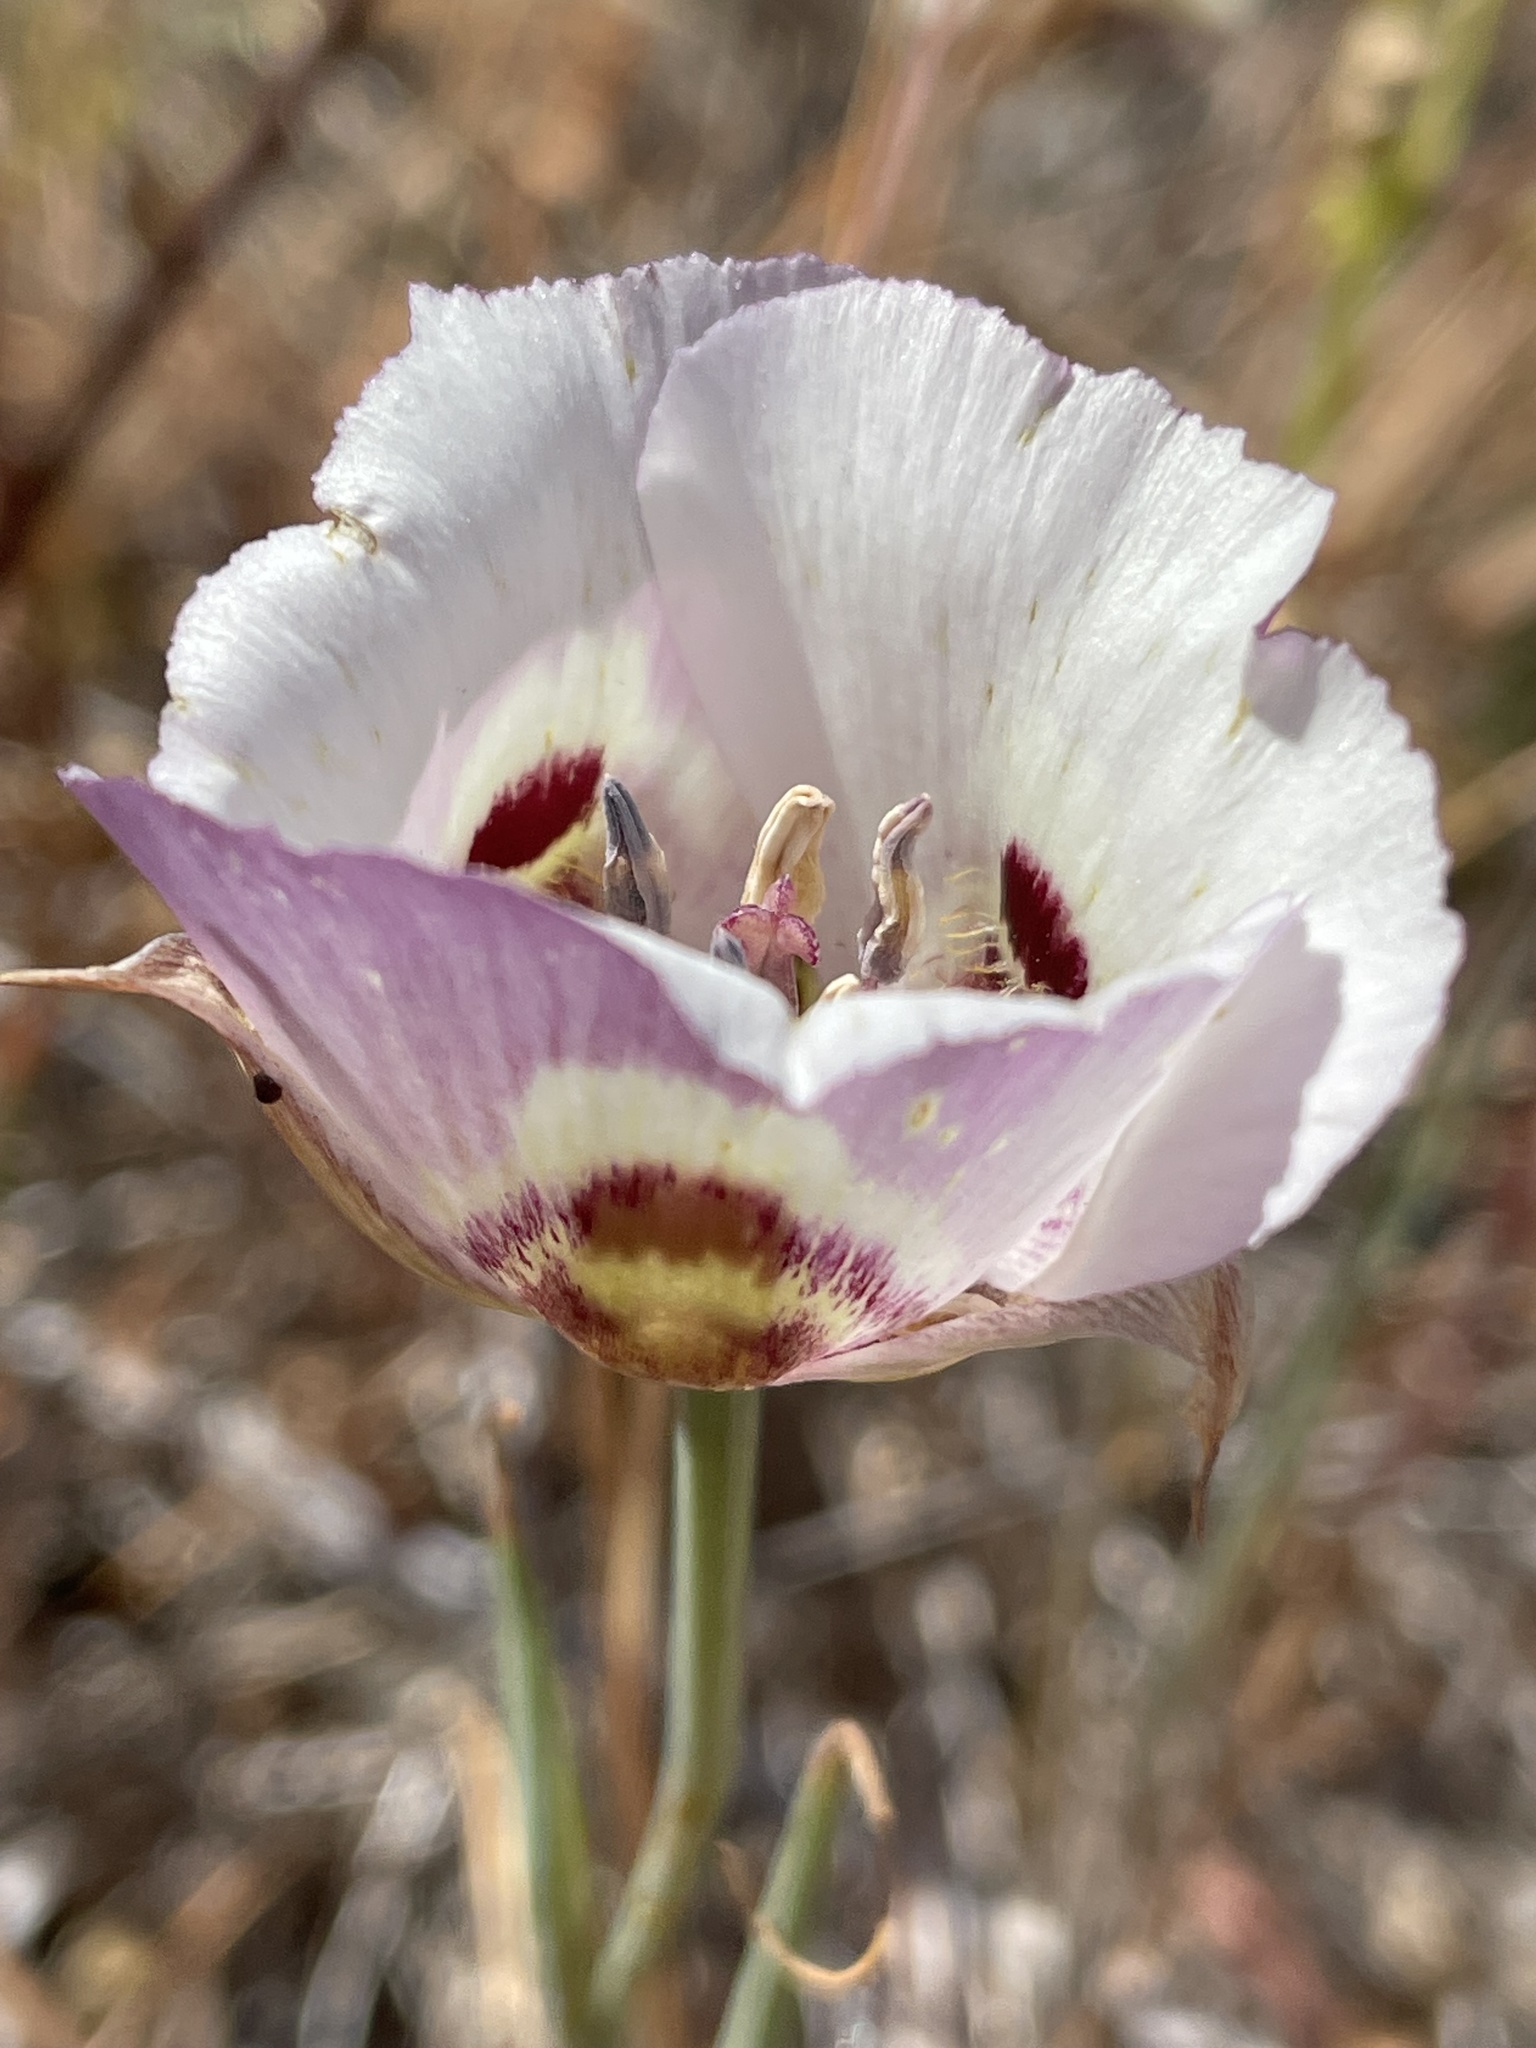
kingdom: Plantae
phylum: Tracheophyta
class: Liliopsida
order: Liliales
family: Liliaceae
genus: Calochortus
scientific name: Calochortus argillosus
